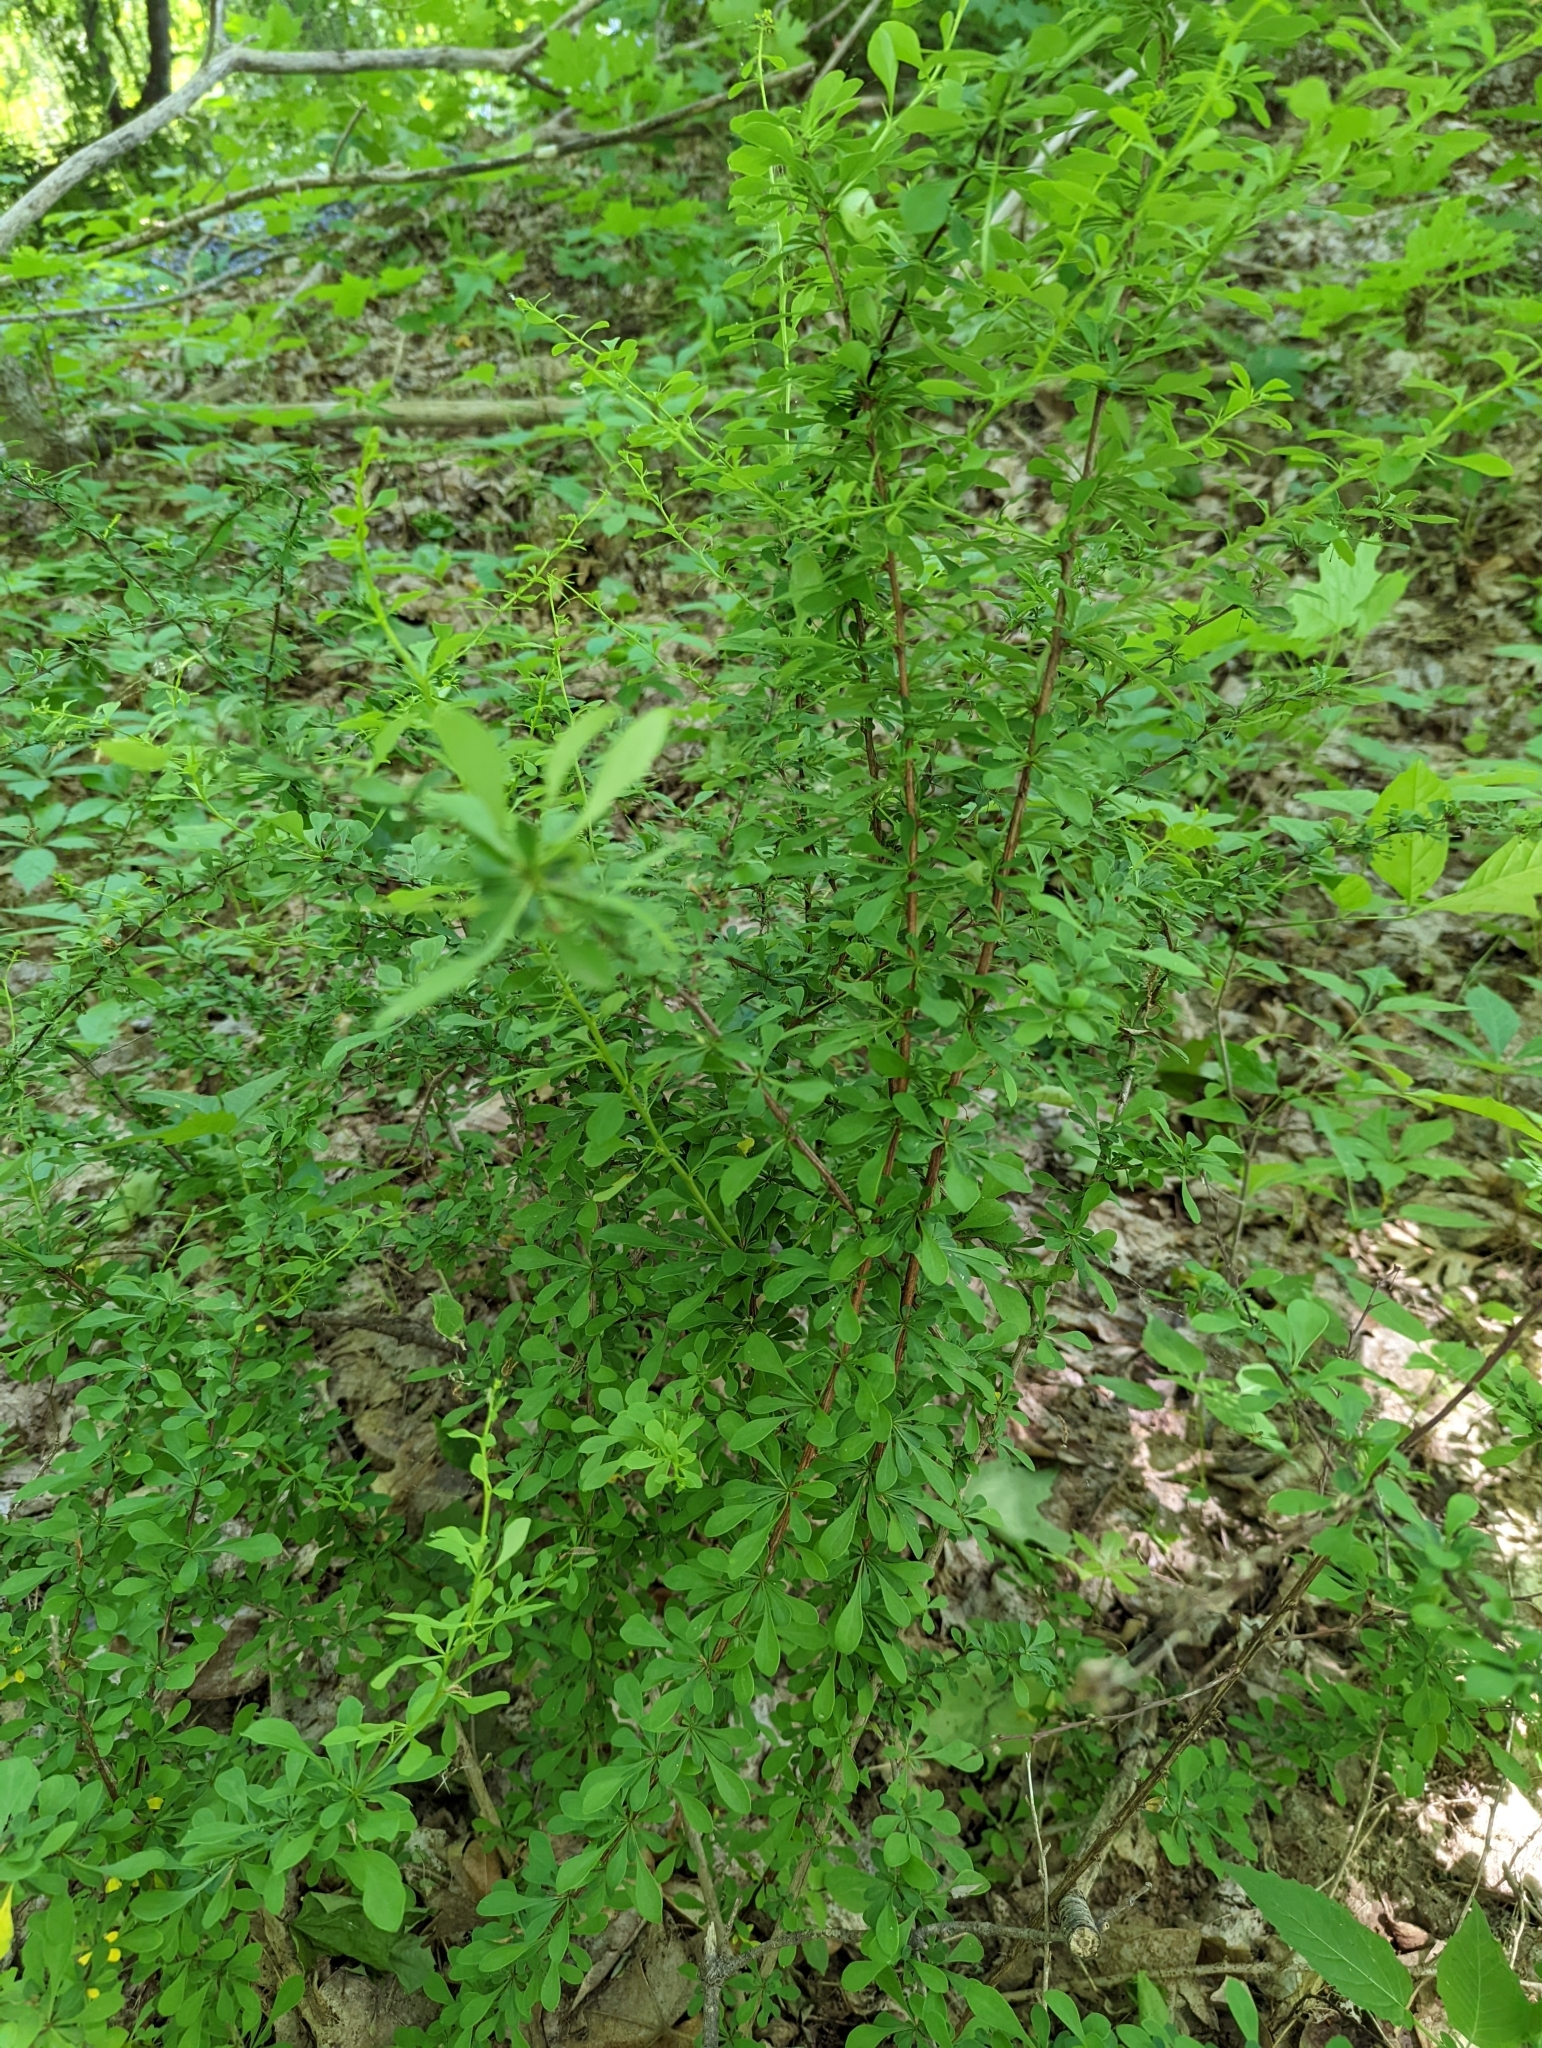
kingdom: Plantae
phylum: Tracheophyta
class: Magnoliopsida
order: Ranunculales
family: Berberidaceae
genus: Berberis
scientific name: Berberis thunbergii
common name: Japanese barberry
